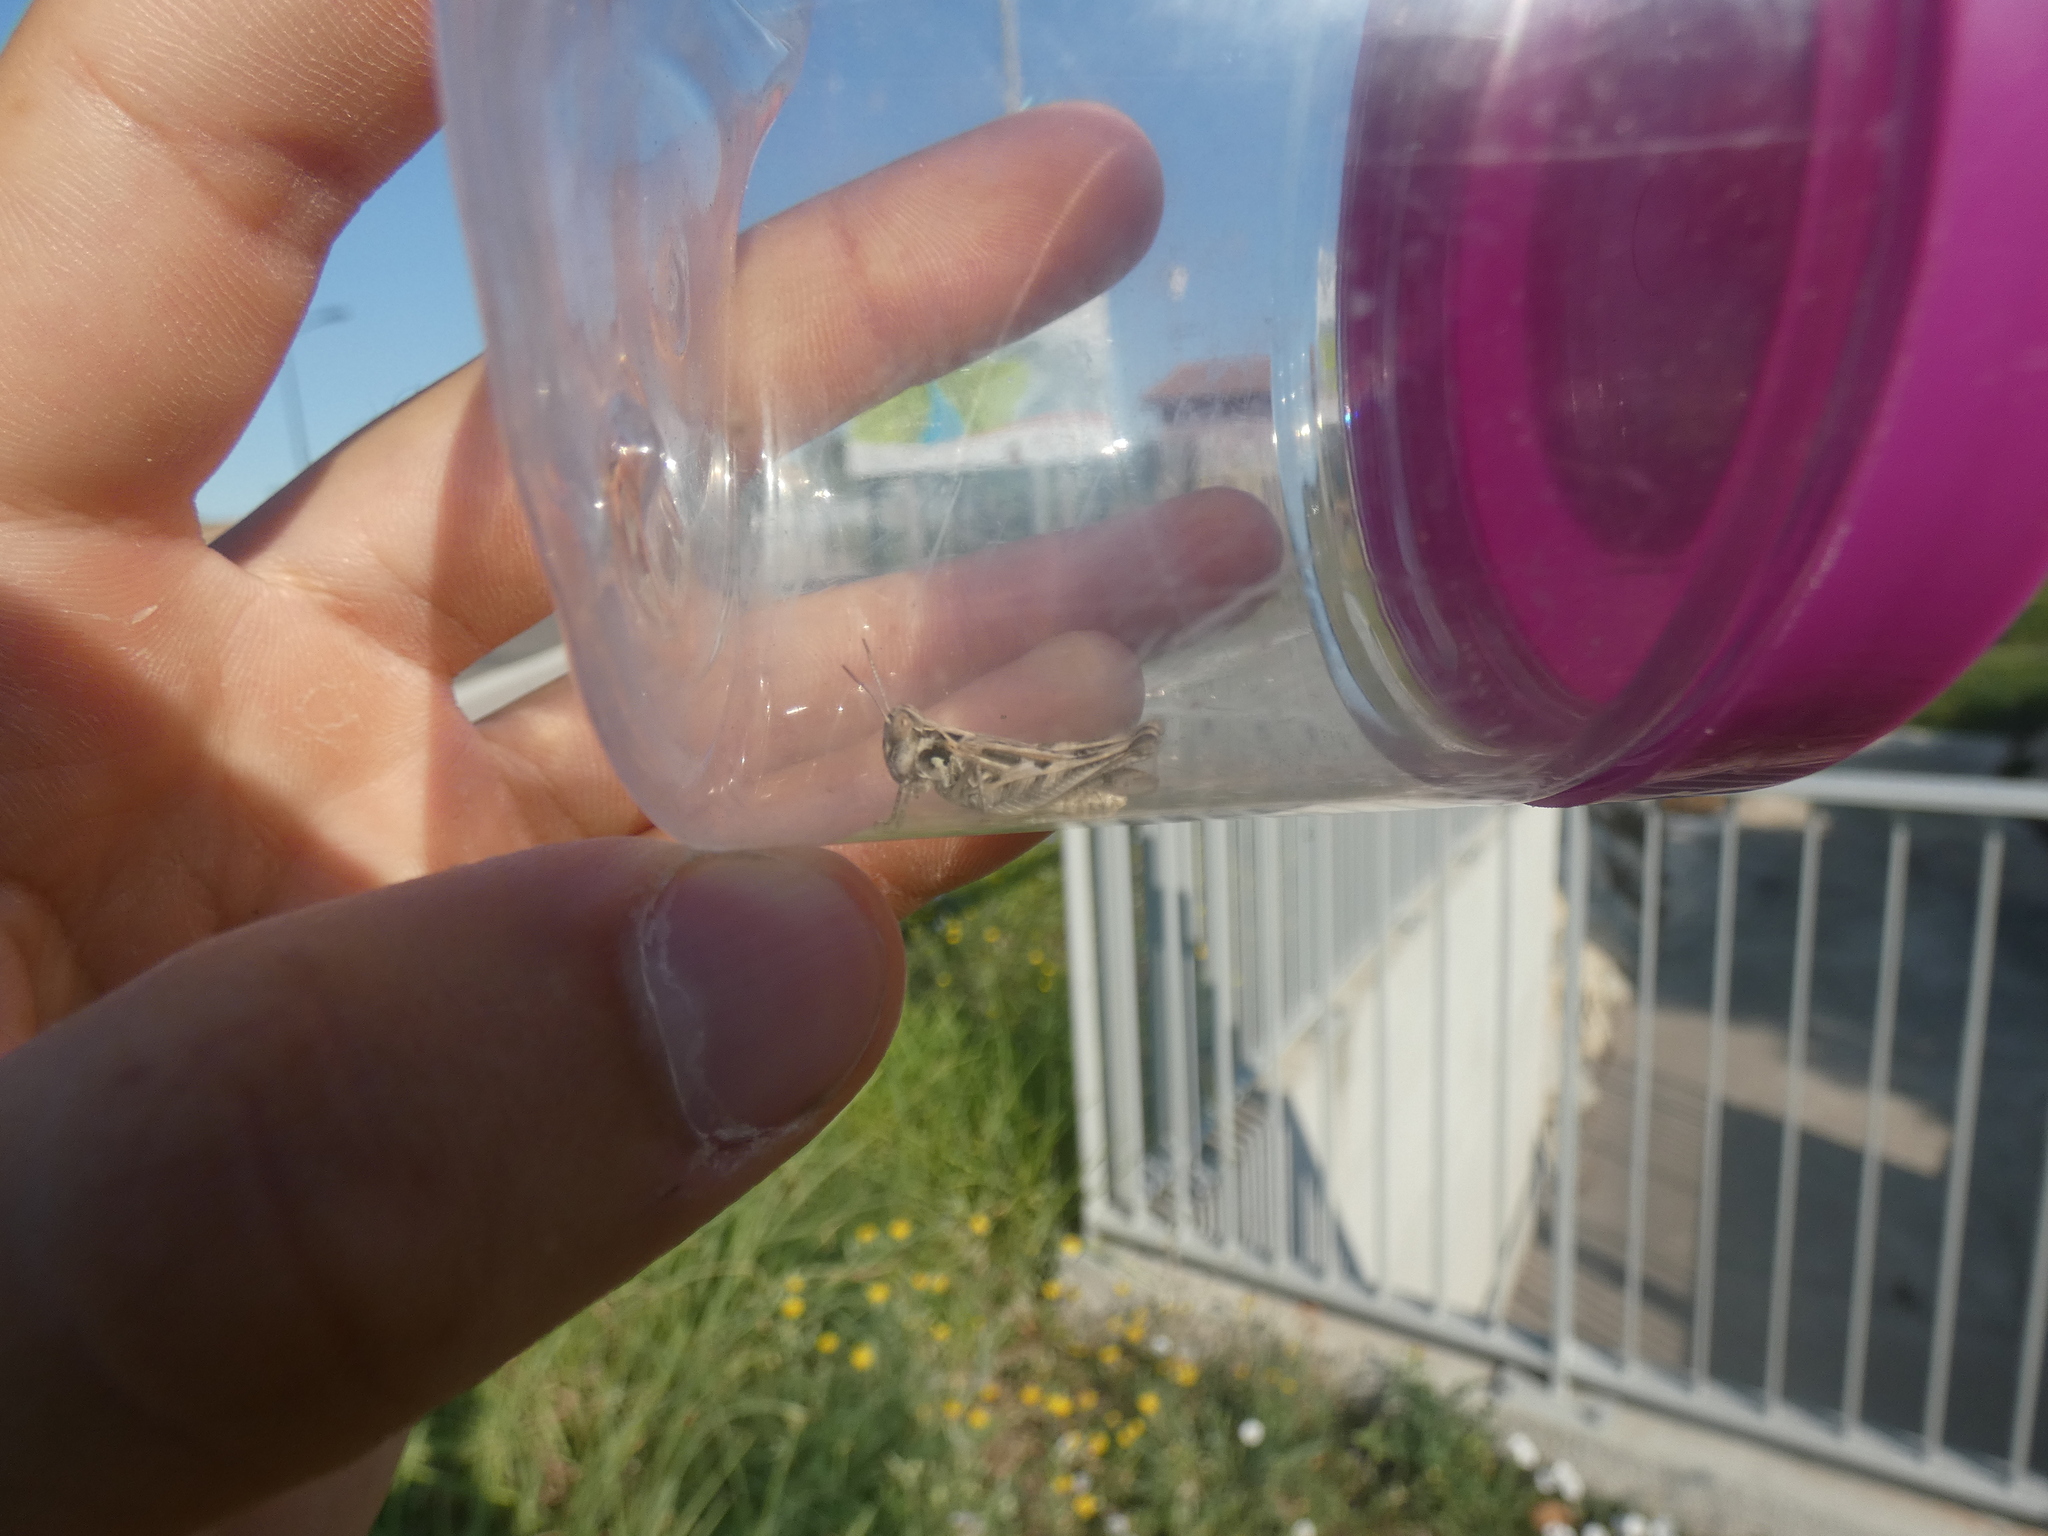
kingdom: Animalia
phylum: Arthropoda
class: Insecta
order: Orthoptera
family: Acrididae
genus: Dociostaurus
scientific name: Dociostaurus jagoi
